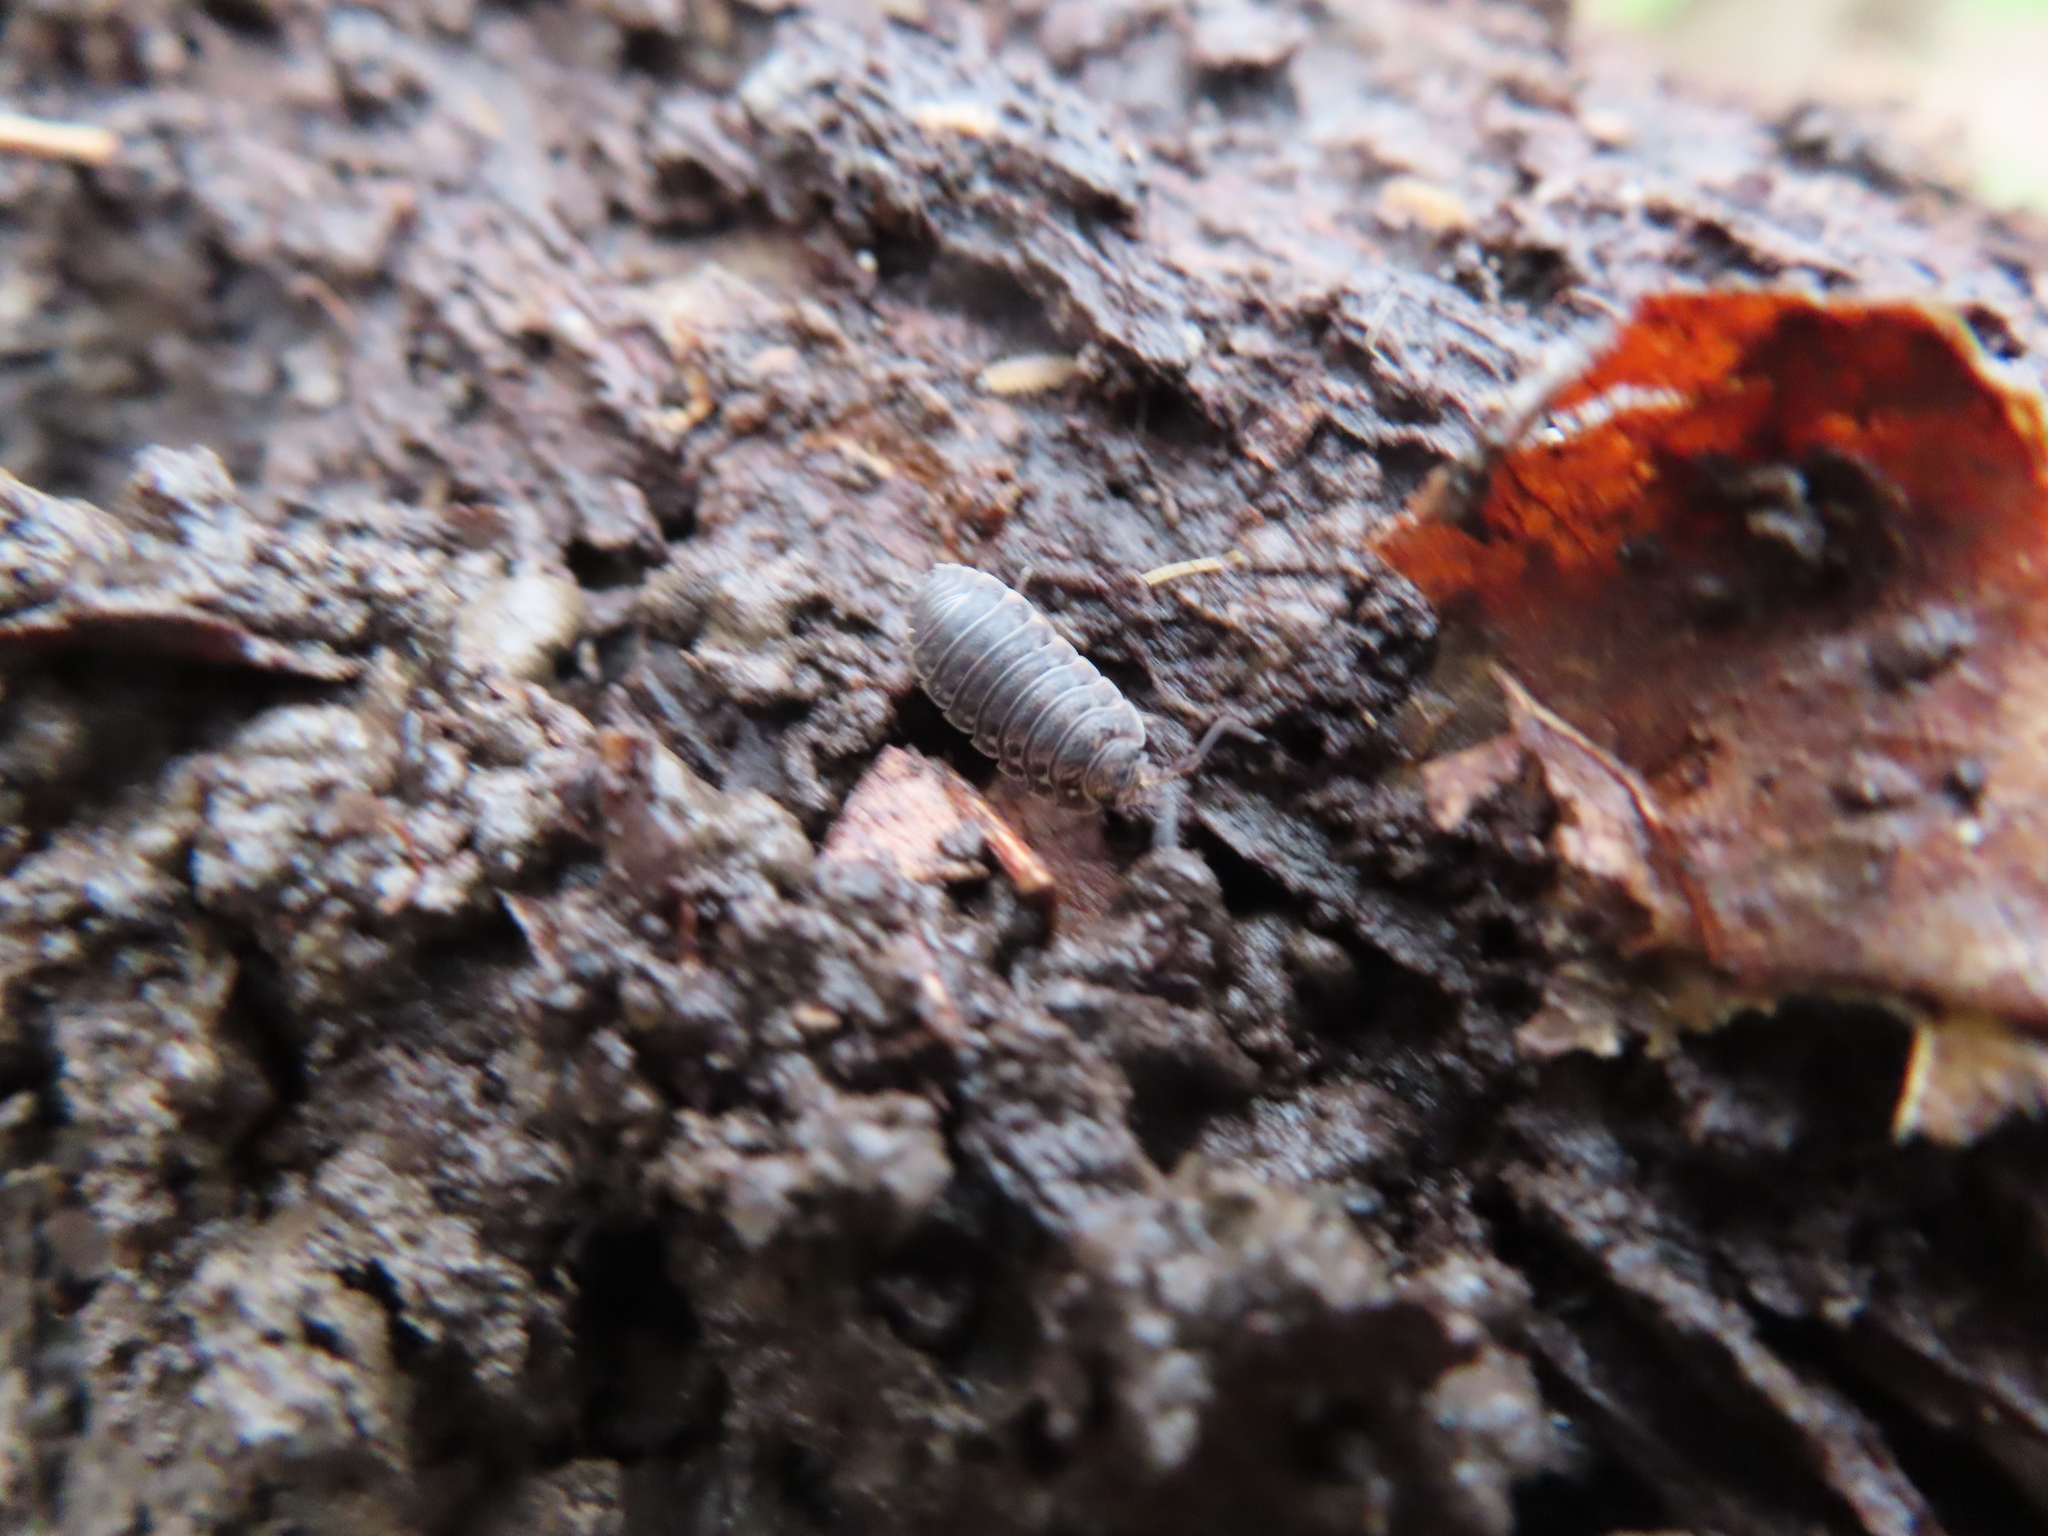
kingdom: Animalia
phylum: Arthropoda
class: Malacostraca
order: Isopoda
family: Porcellionidae
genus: Porcellio
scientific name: Porcellio scaber
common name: Common rough woodlouse
